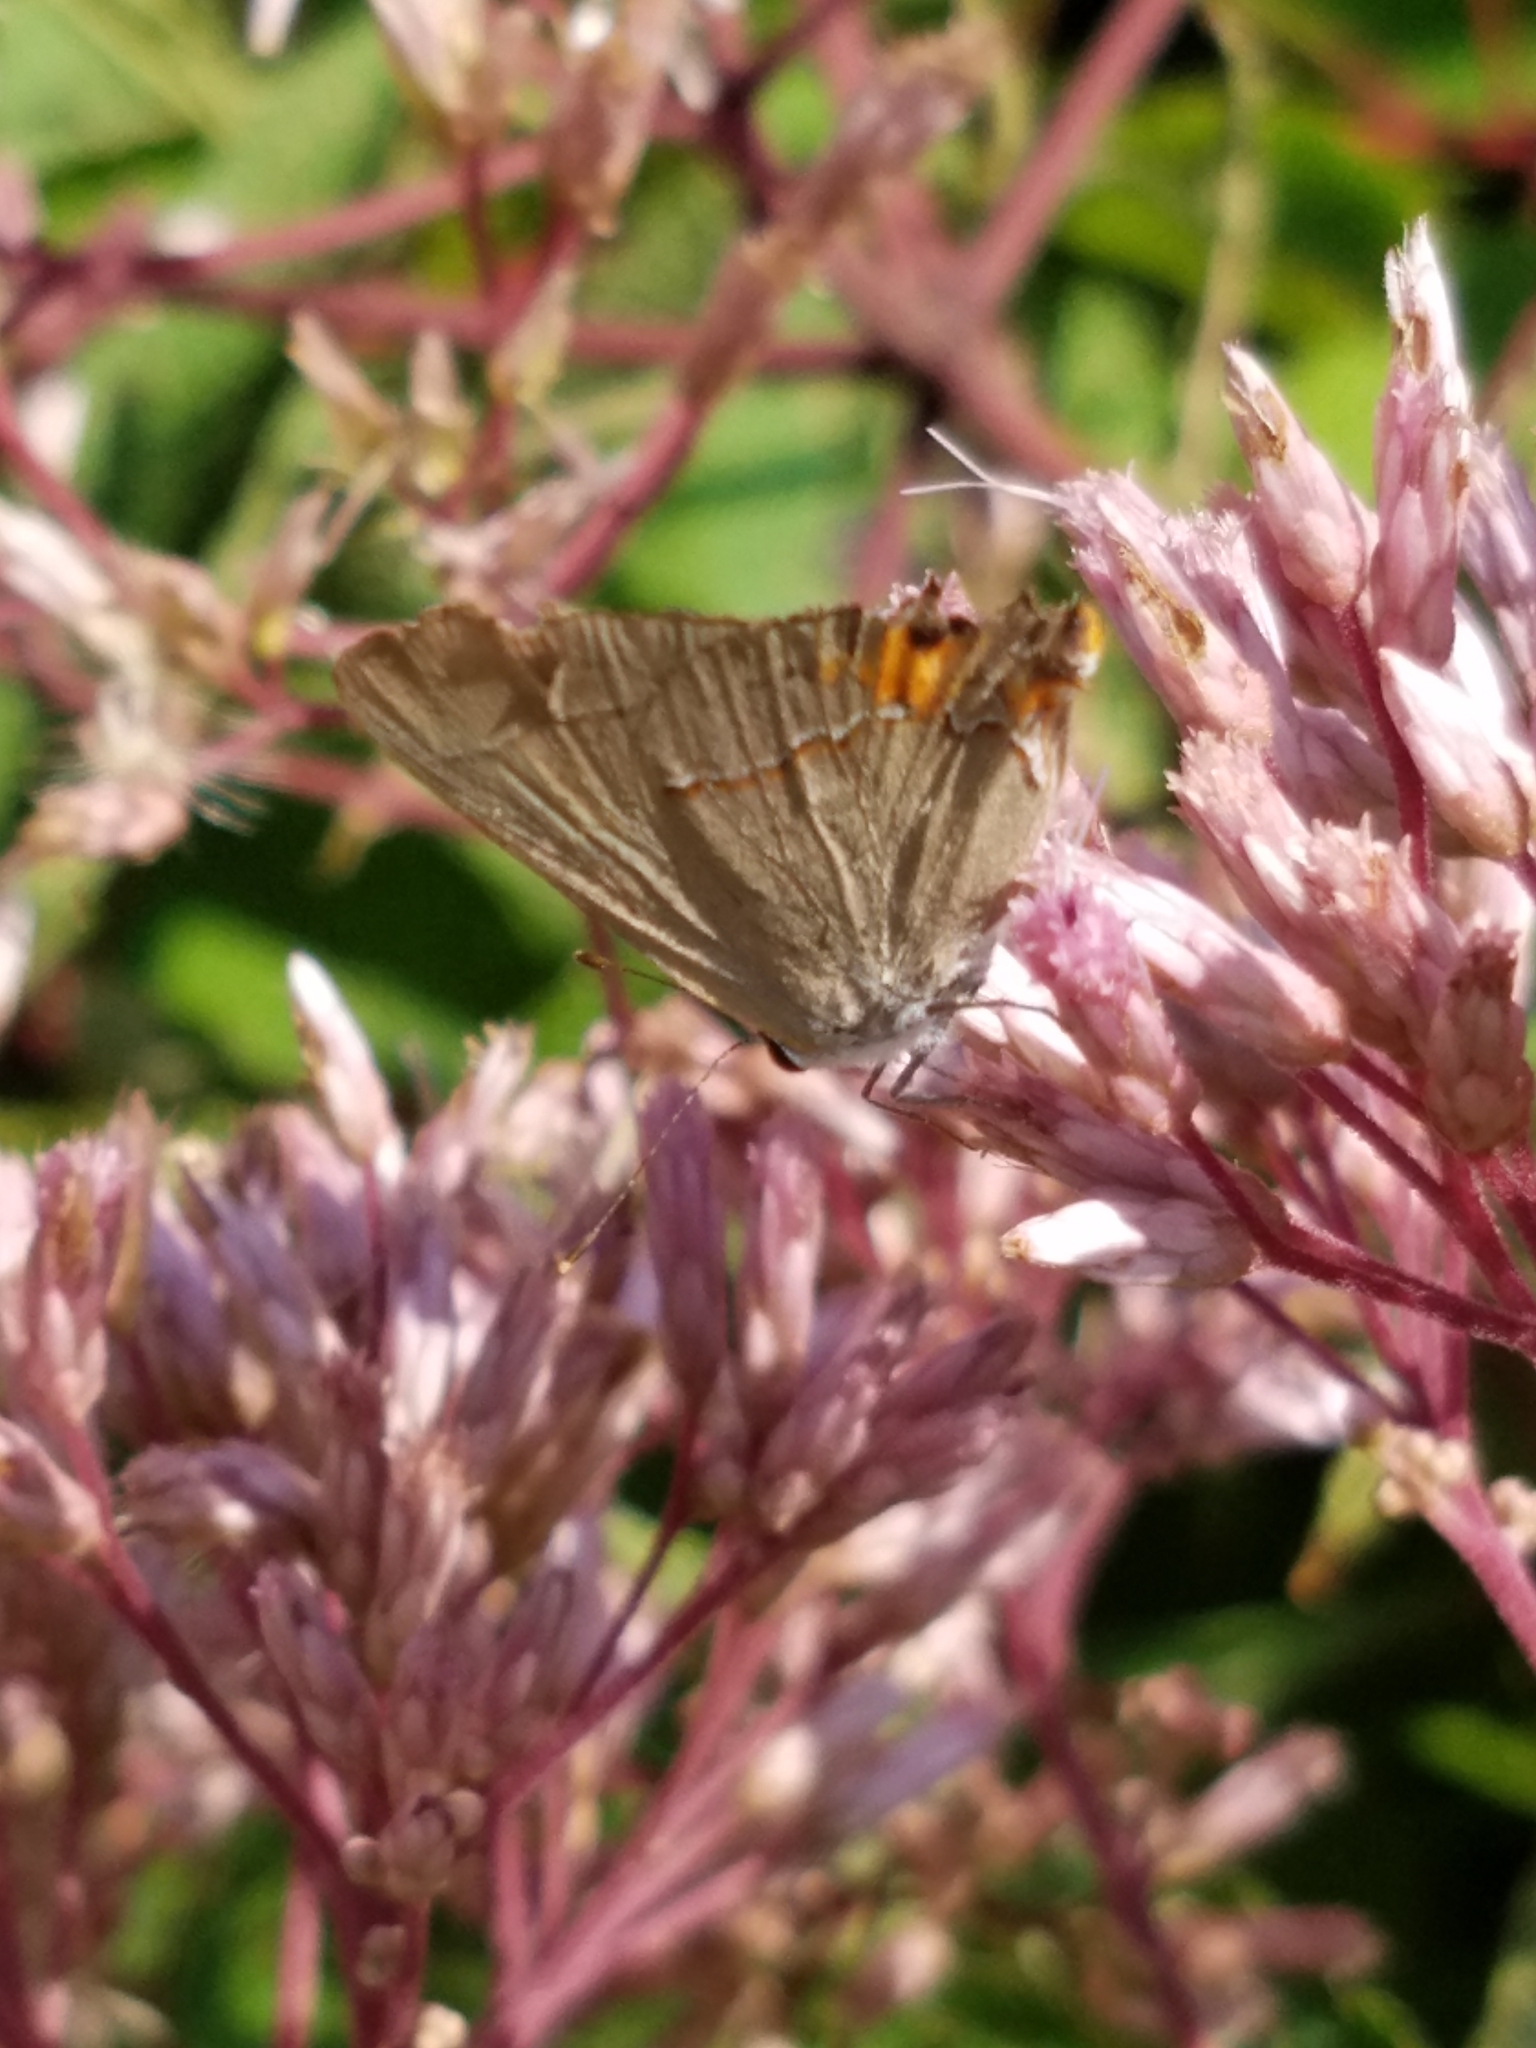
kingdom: Animalia
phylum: Arthropoda
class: Insecta
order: Lepidoptera
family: Lycaenidae
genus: Strymon
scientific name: Strymon melinus
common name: Gray hairstreak
